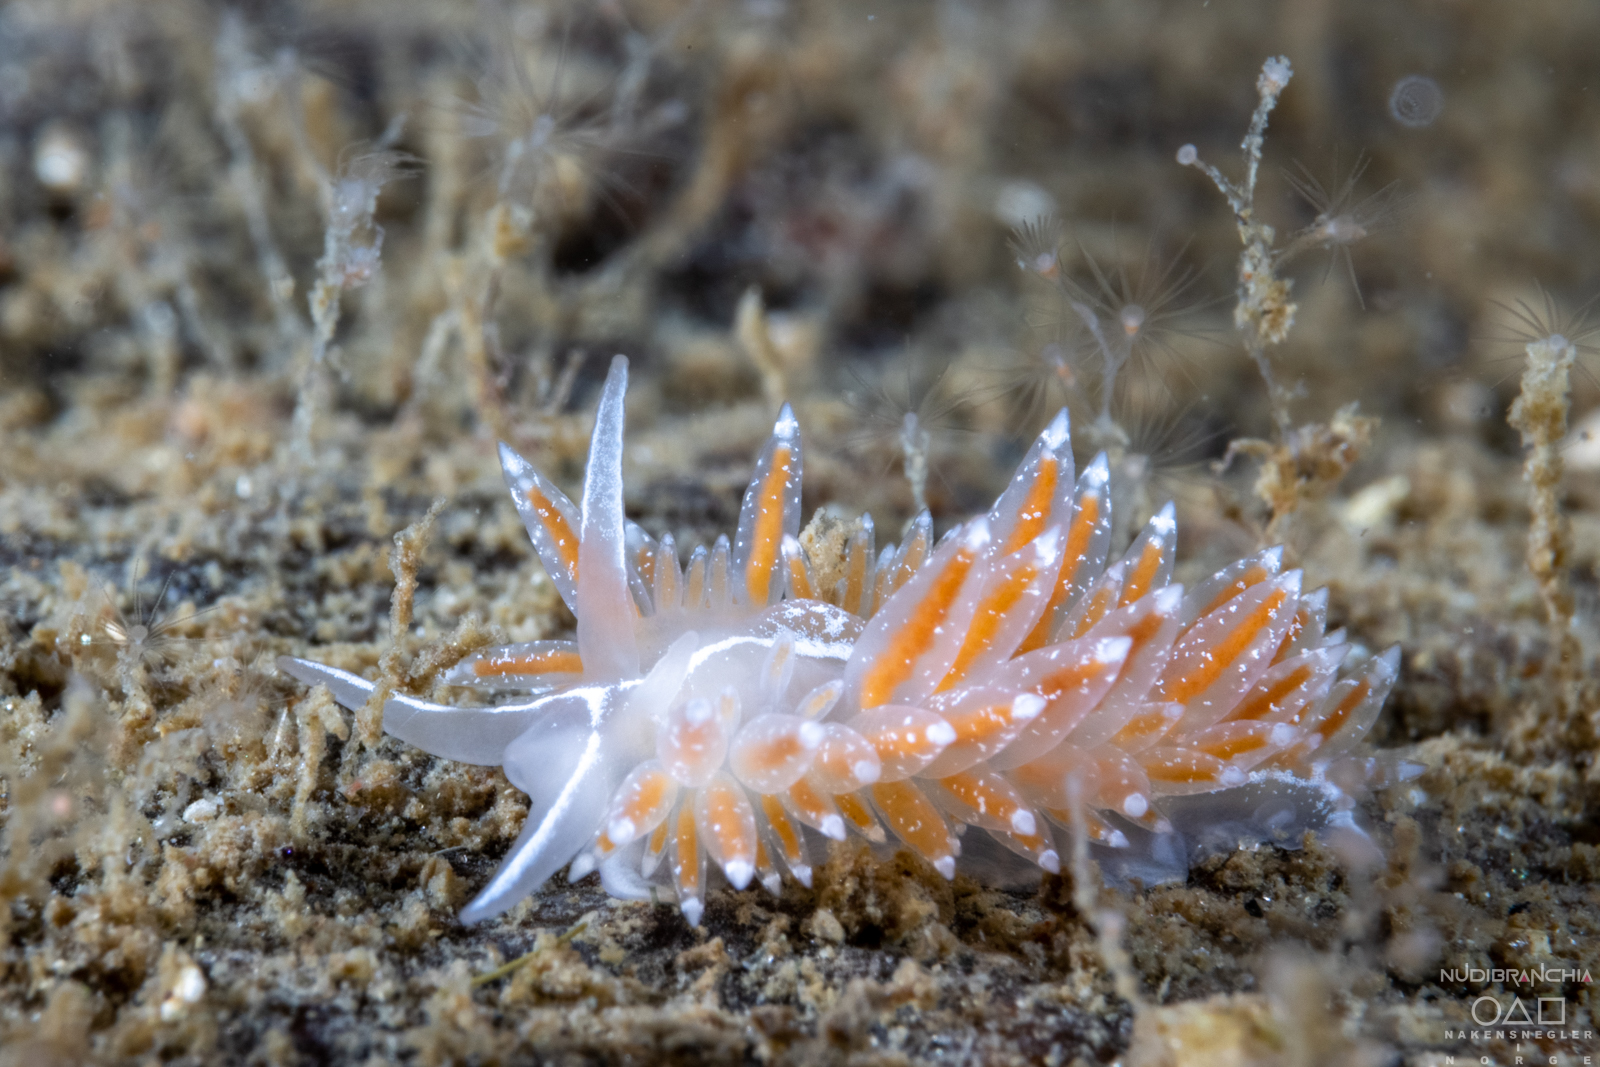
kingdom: Animalia
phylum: Mollusca
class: Gastropoda
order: Nudibranchia
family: Coryphellidae
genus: Coryphella
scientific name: Coryphella monicae
